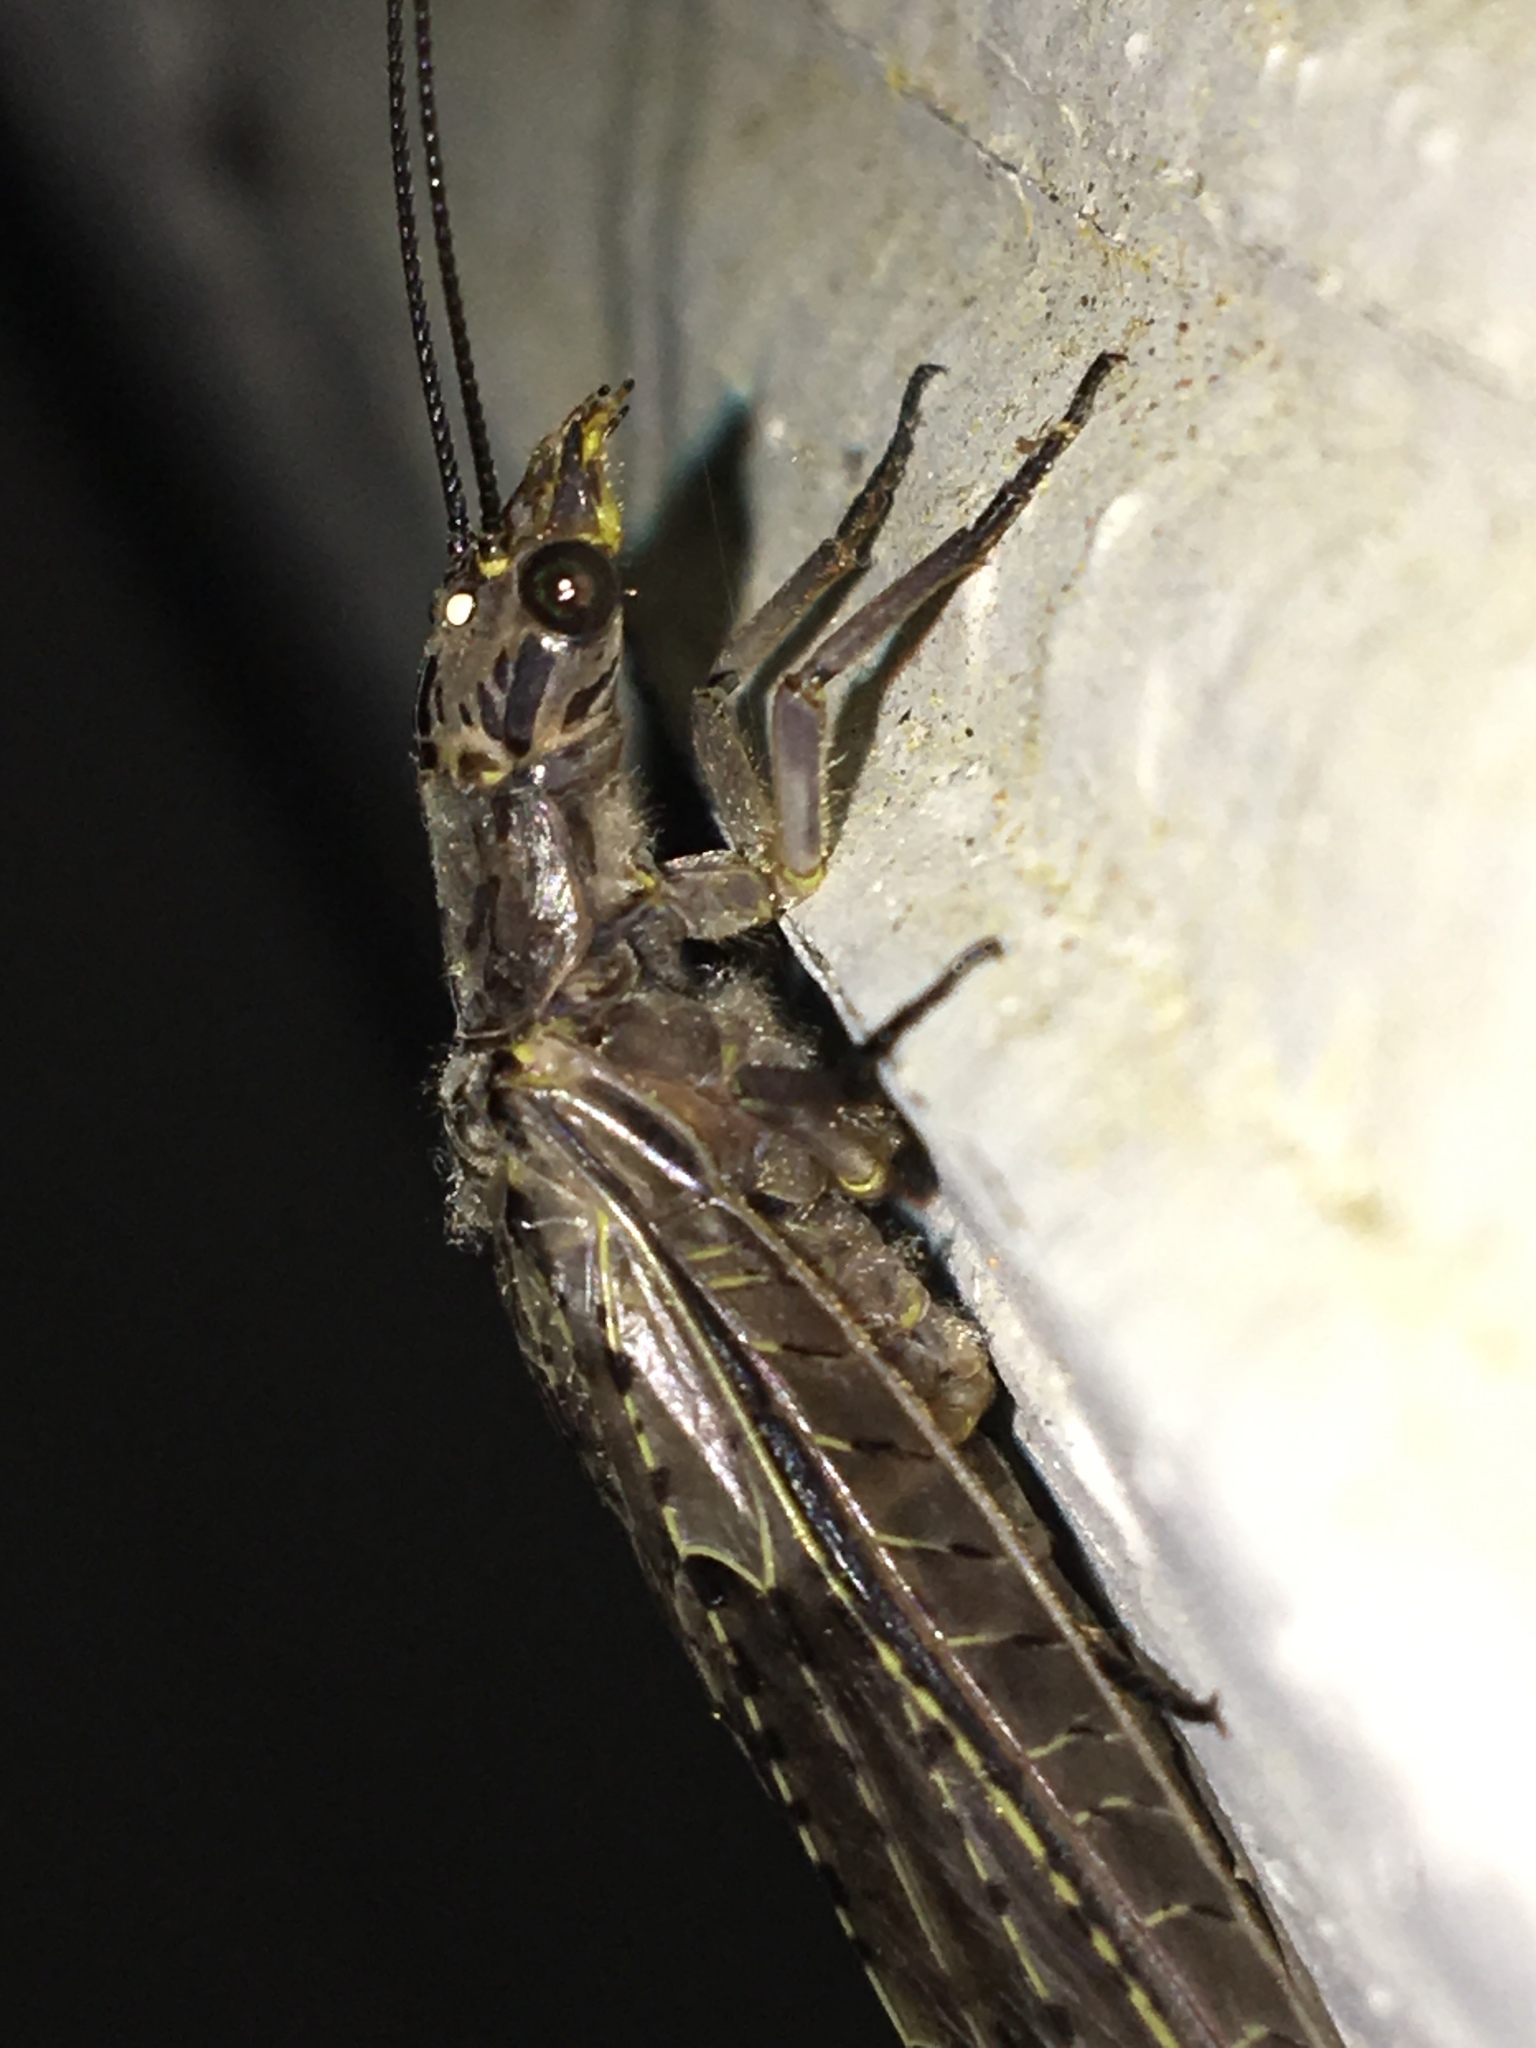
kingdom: Animalia
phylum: Arthropoda
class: Insecta
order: Megaloptera
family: Corydalidae
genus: Chauliodes
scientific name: Chauliodes rastricornis
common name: Spring fishfly
